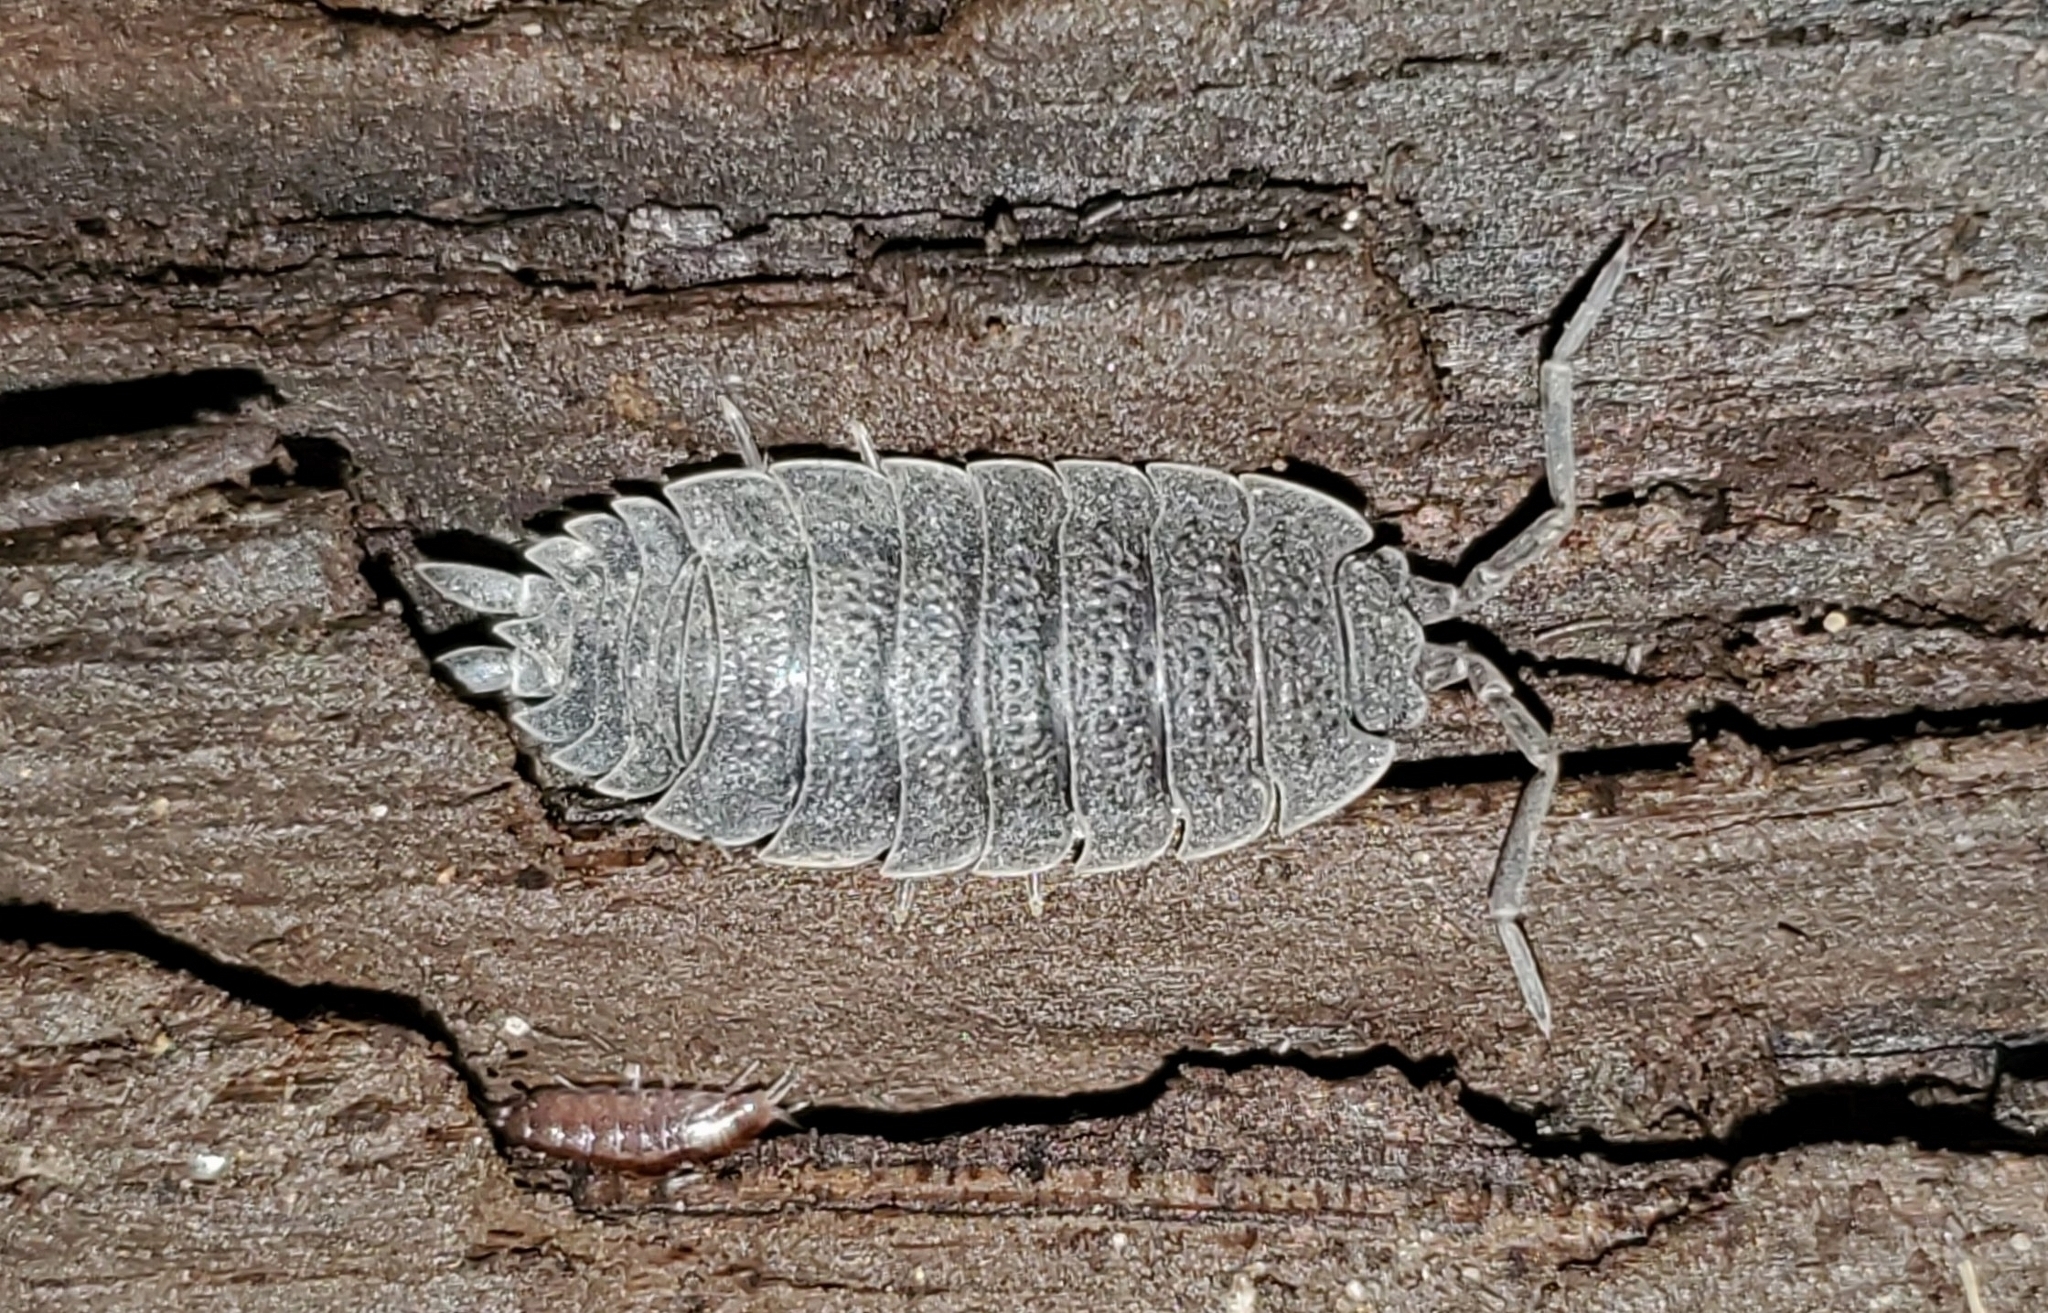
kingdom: Animalia
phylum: Arthropoda
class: Malacostraca
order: Isopoda
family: Porcellionidae
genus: Porcellio
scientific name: Porcellio scaber
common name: Common rough woodlouse
